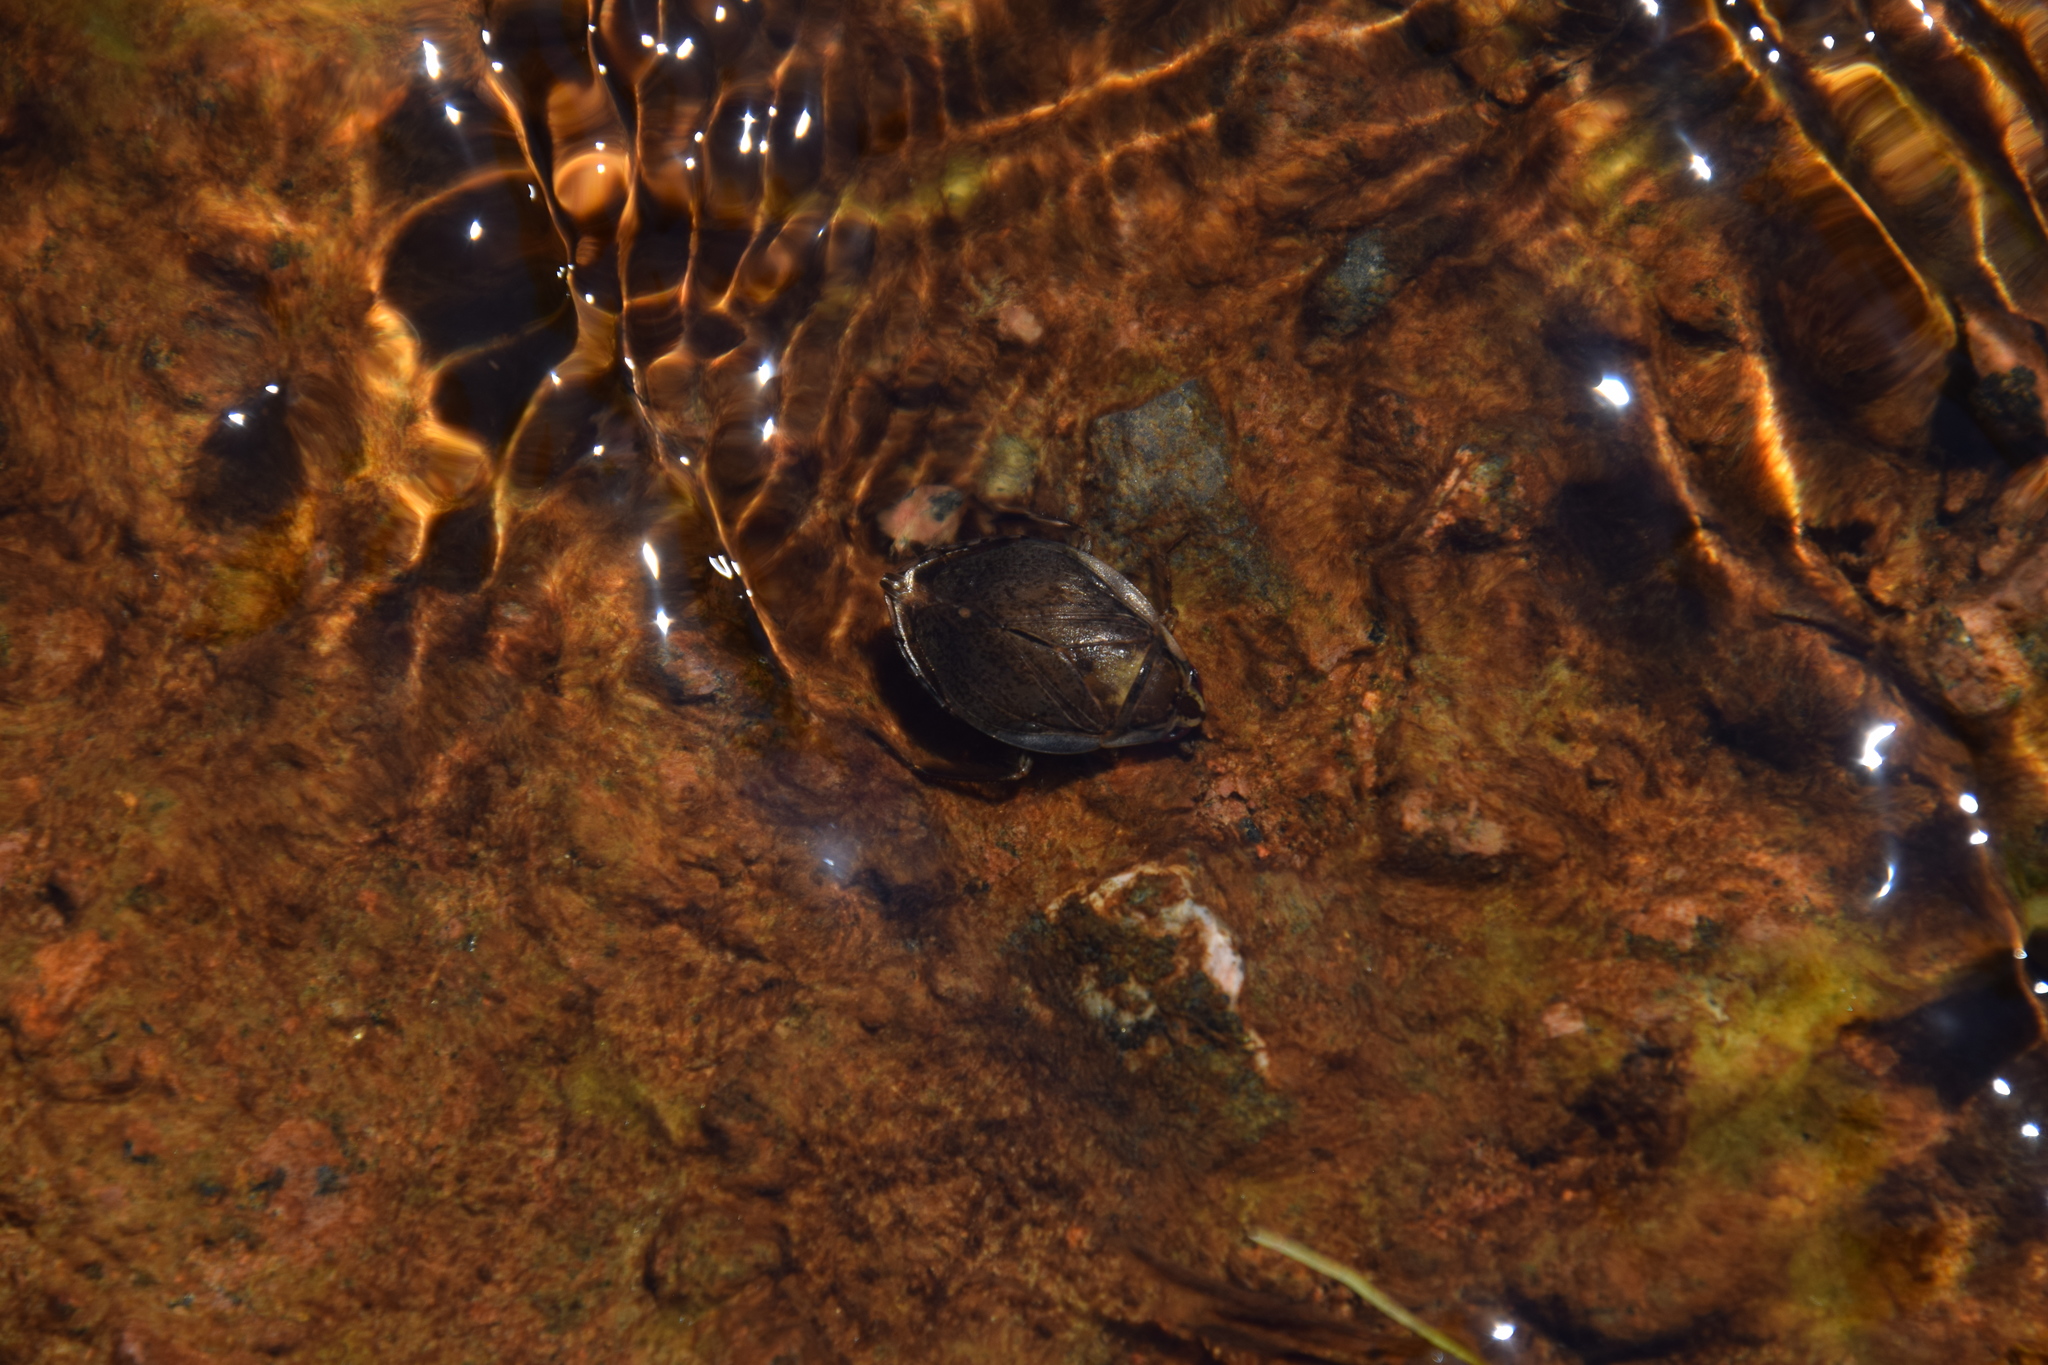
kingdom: Animalia
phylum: Arthropoda
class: Insecta
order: Hemiptera
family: Belostomatidae
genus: Diplonychus
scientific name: Diplonychus eques
